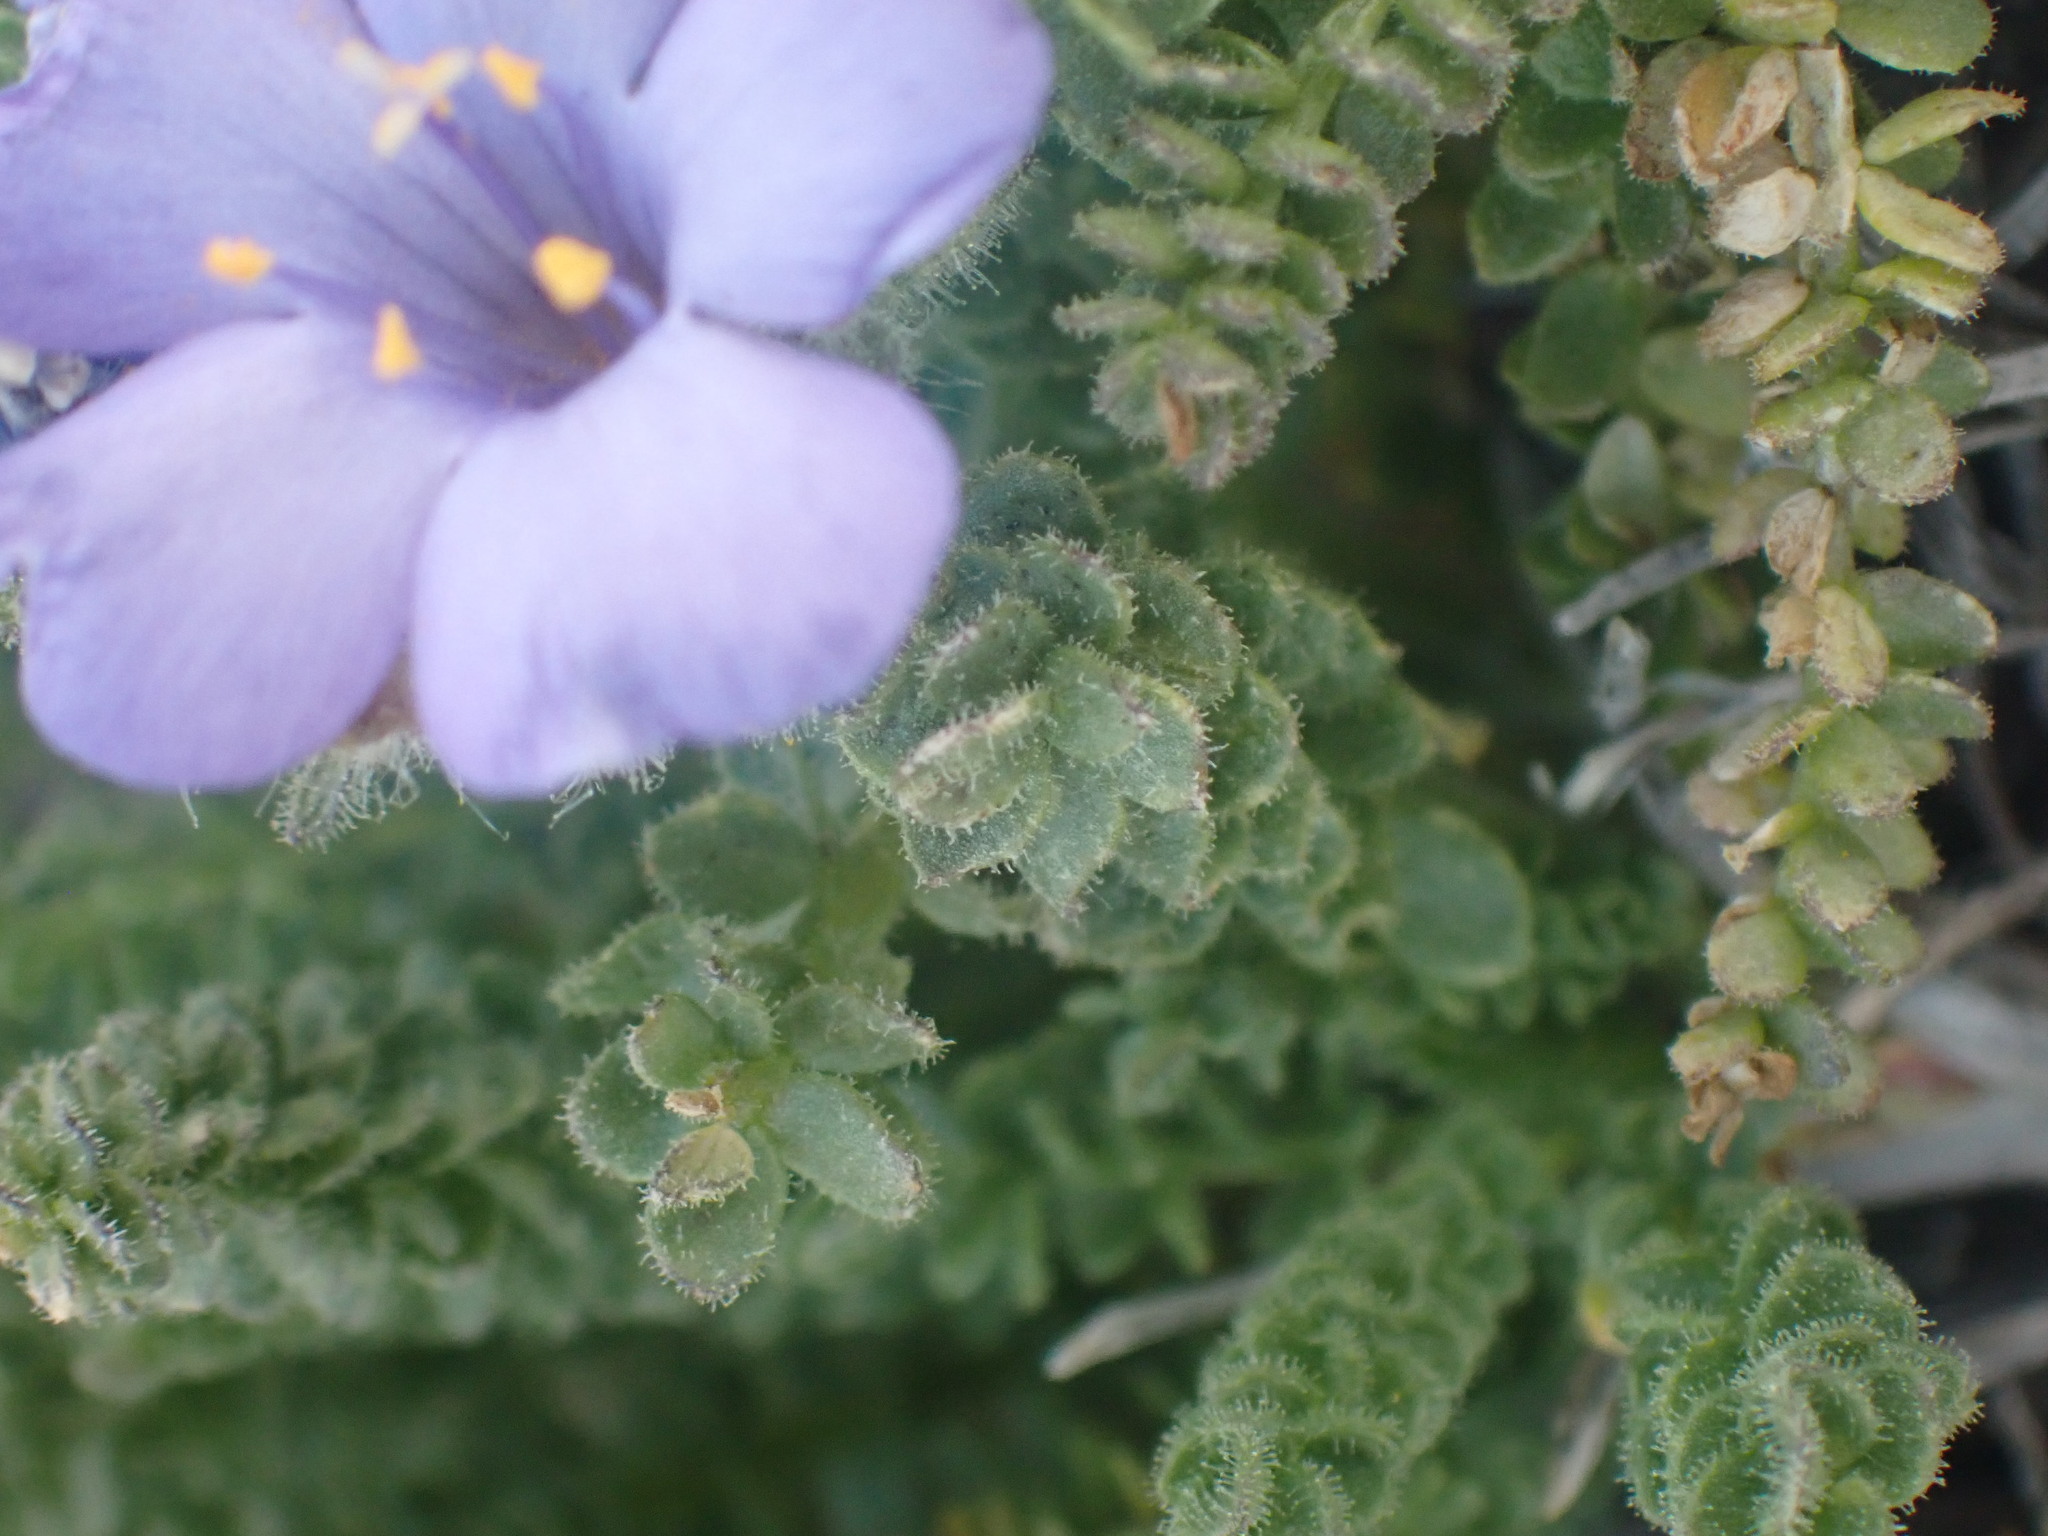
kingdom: Plantae
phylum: Tracheophyta
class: Magnoliopsida
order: Ericales
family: Polemoniaceae
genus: Polemonium
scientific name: Polemonium viscosum
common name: Skunk jacob's-ladder
